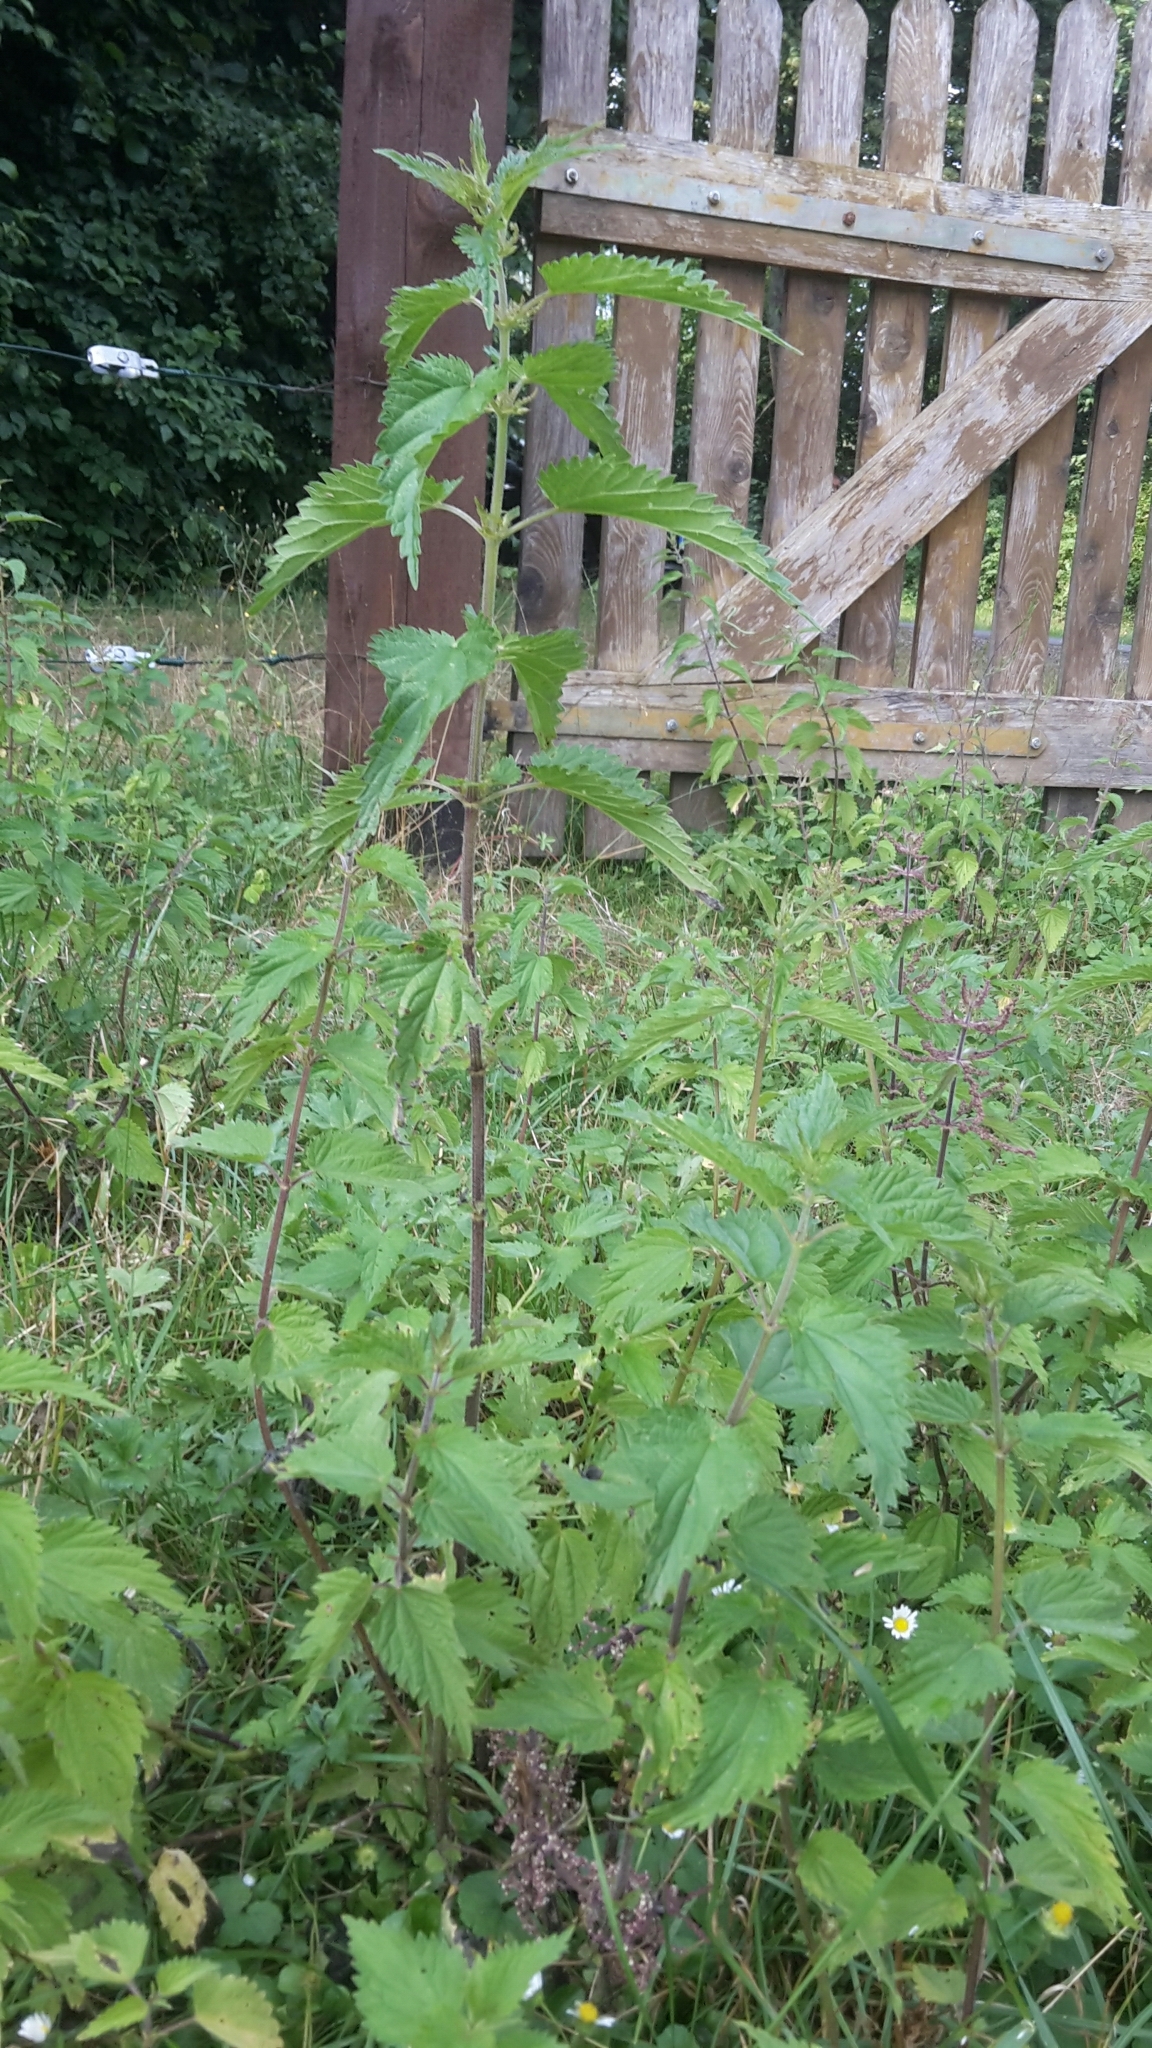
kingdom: Plantae
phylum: Tracheophyta
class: Magnoliopsida
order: Rosales
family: Urticaceae
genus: Urtica
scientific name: Urtica dioica
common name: Common nettle
